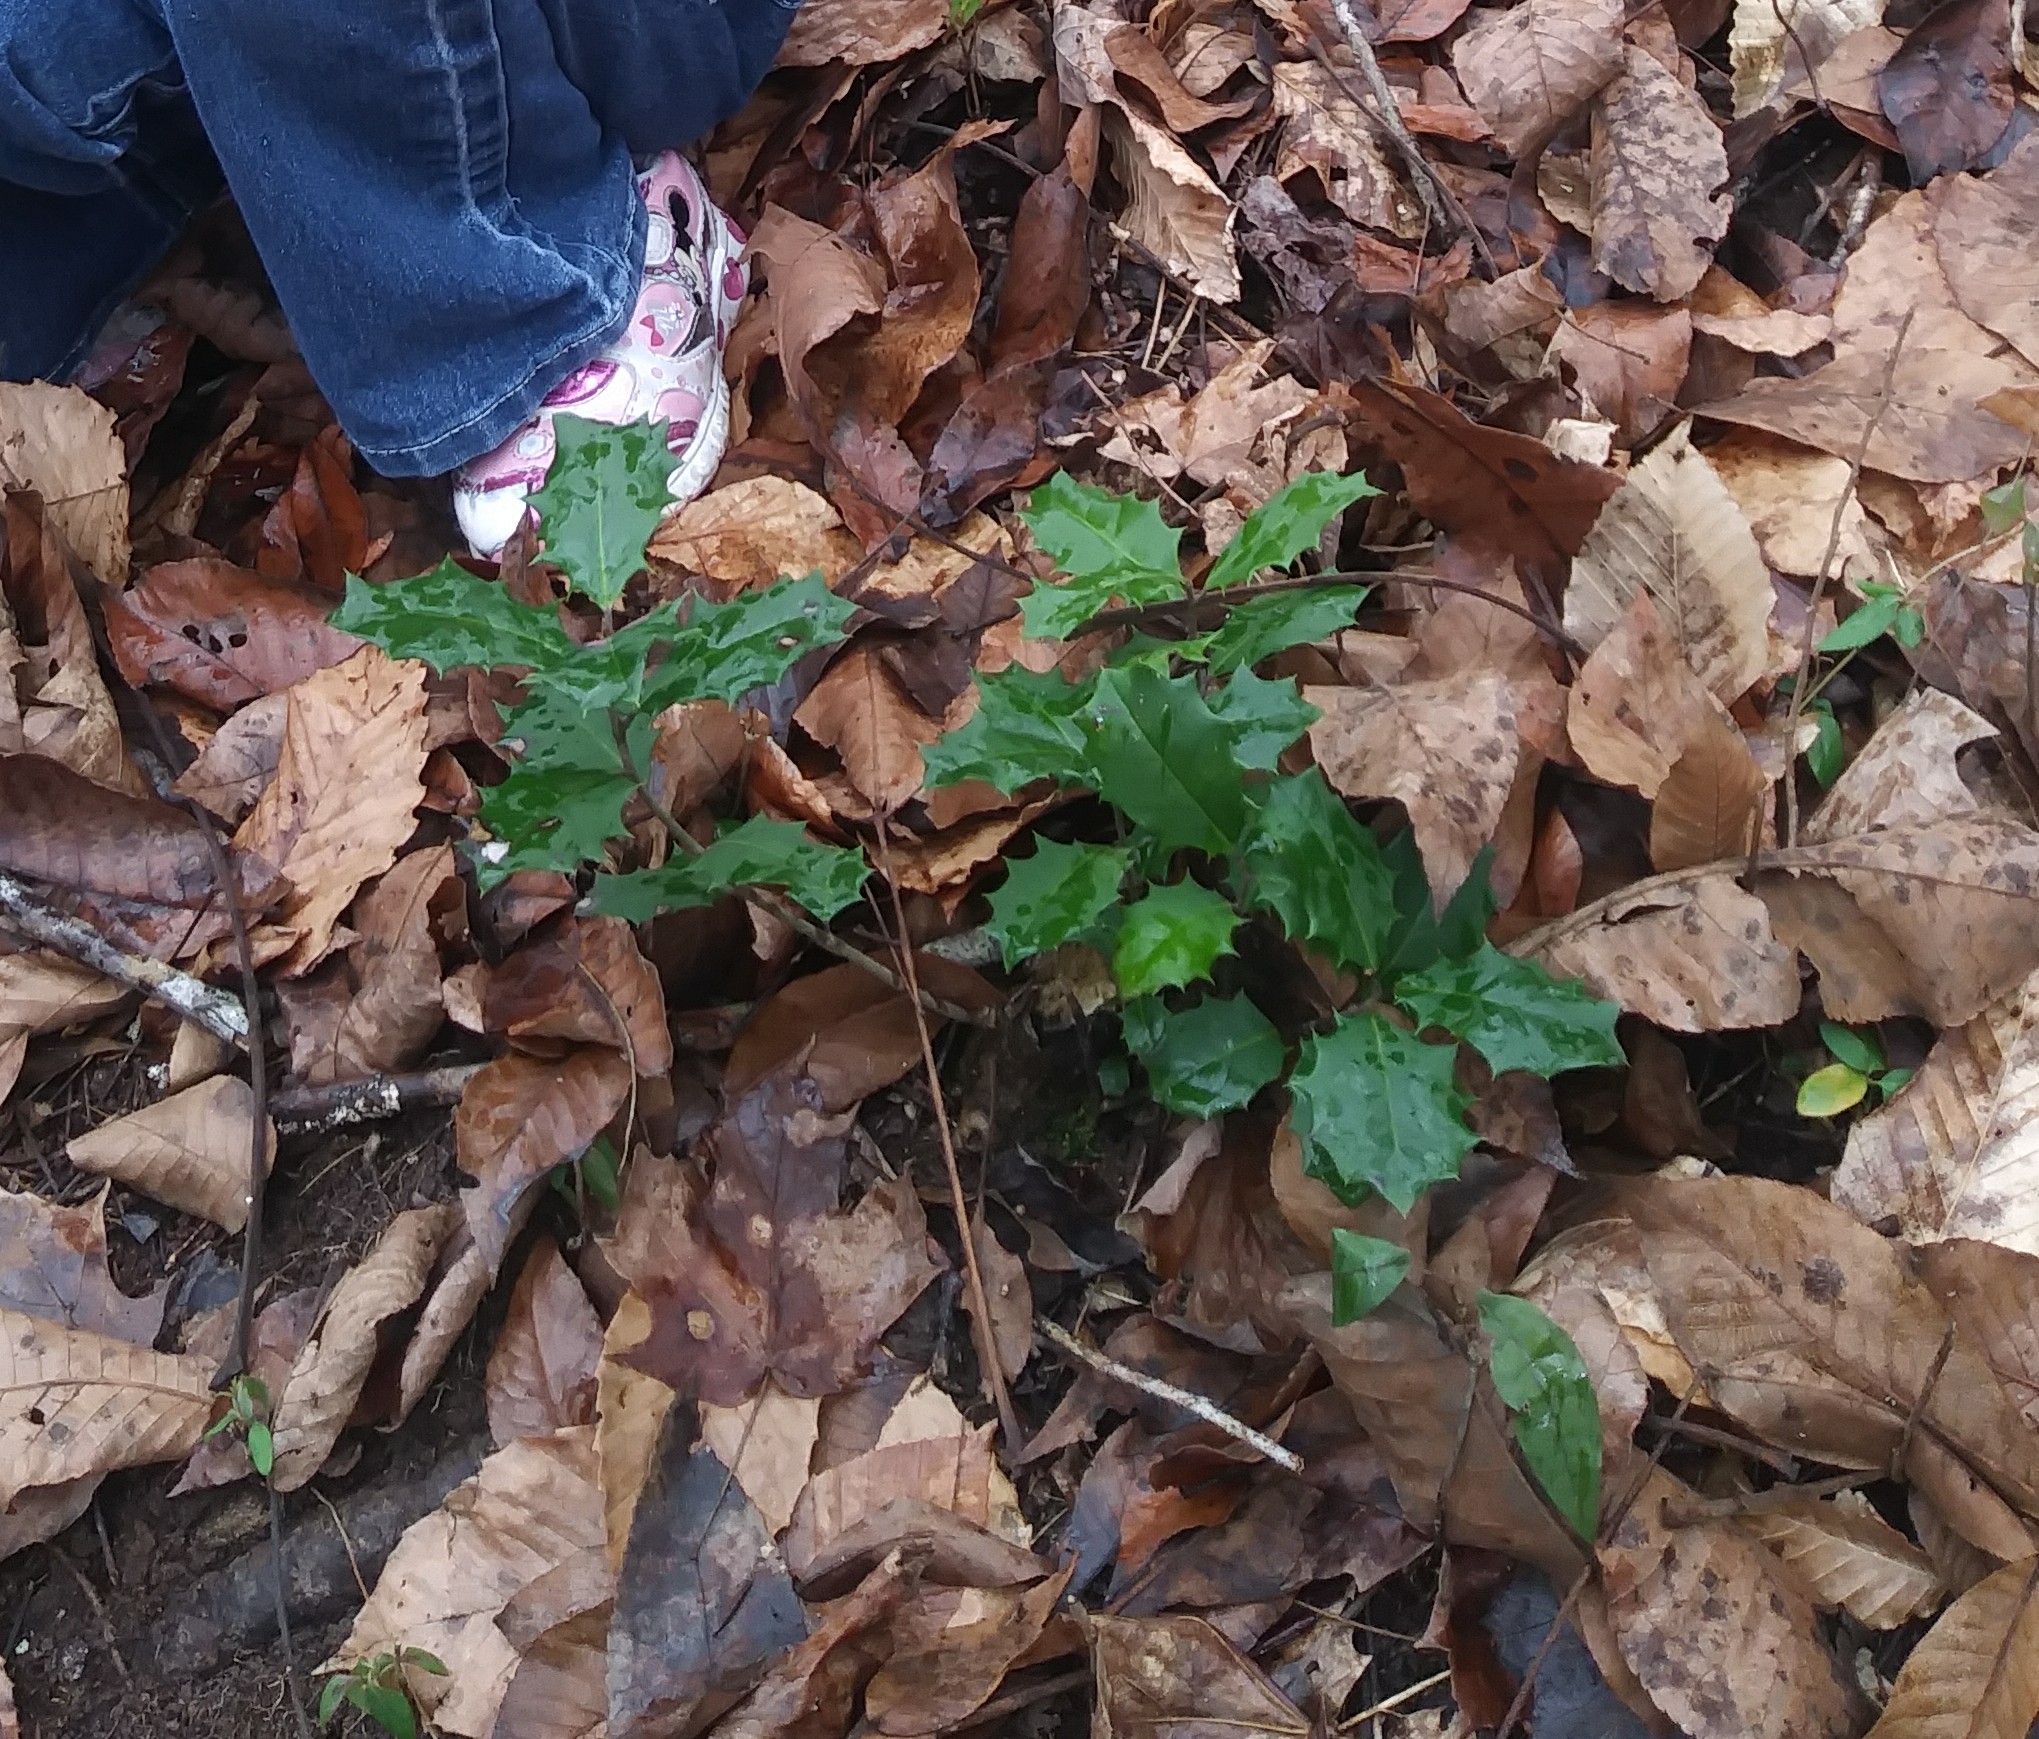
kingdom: Plantae
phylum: Tracheophyta
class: Magnoliopsida
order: Aquifoliales
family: Aquifoliaceae
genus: Ilex
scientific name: Ilex opaca
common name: American holly
